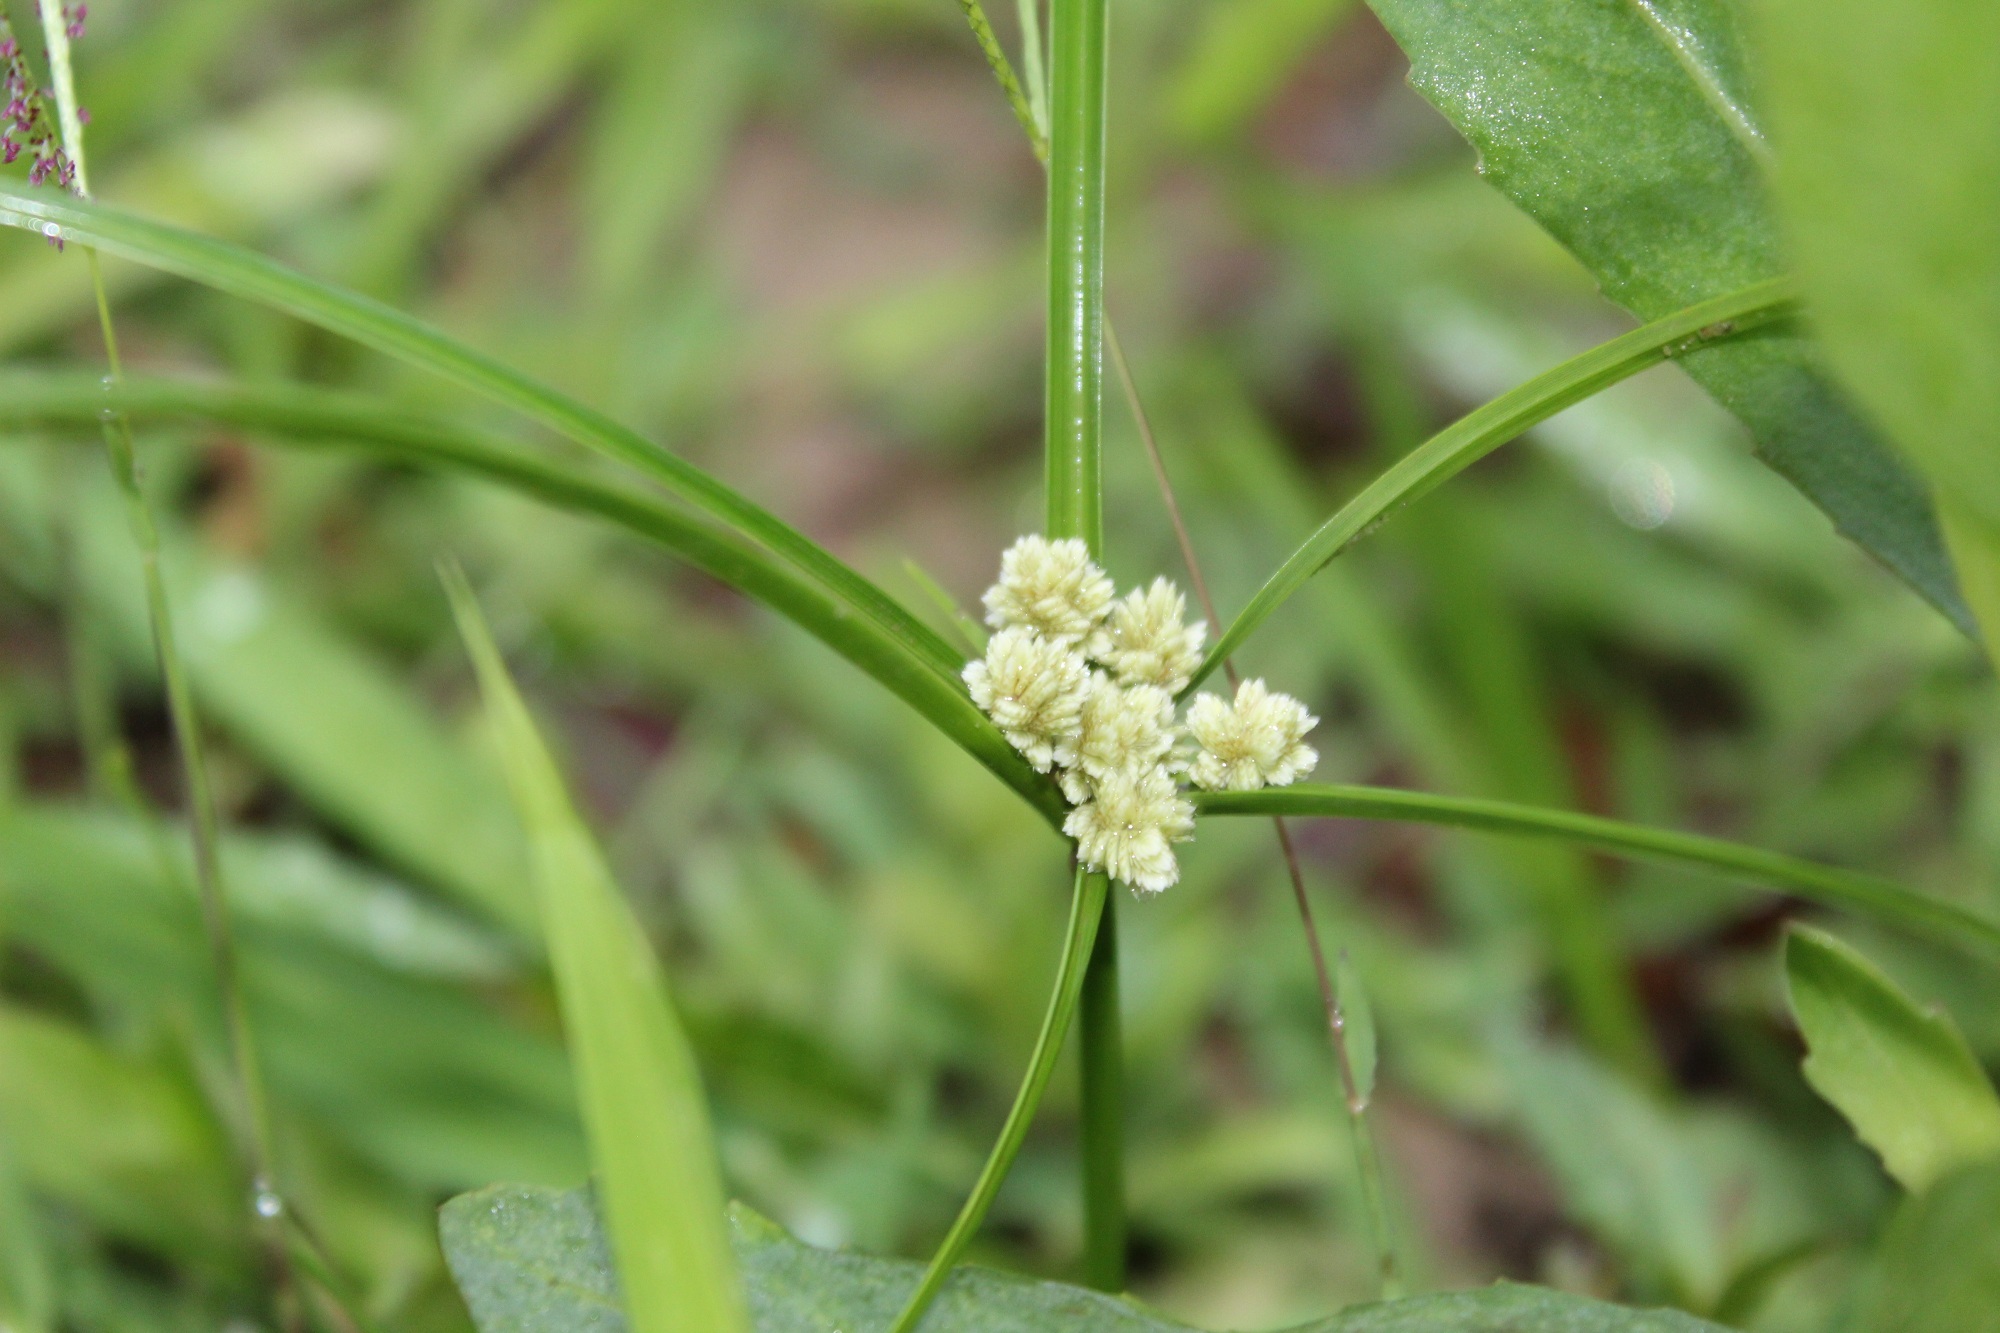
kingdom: Plantae
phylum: Tracheophyta
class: Liliopsida
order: Poales
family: Cyperaceae
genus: Cyperus
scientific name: Cyperus luzulae
